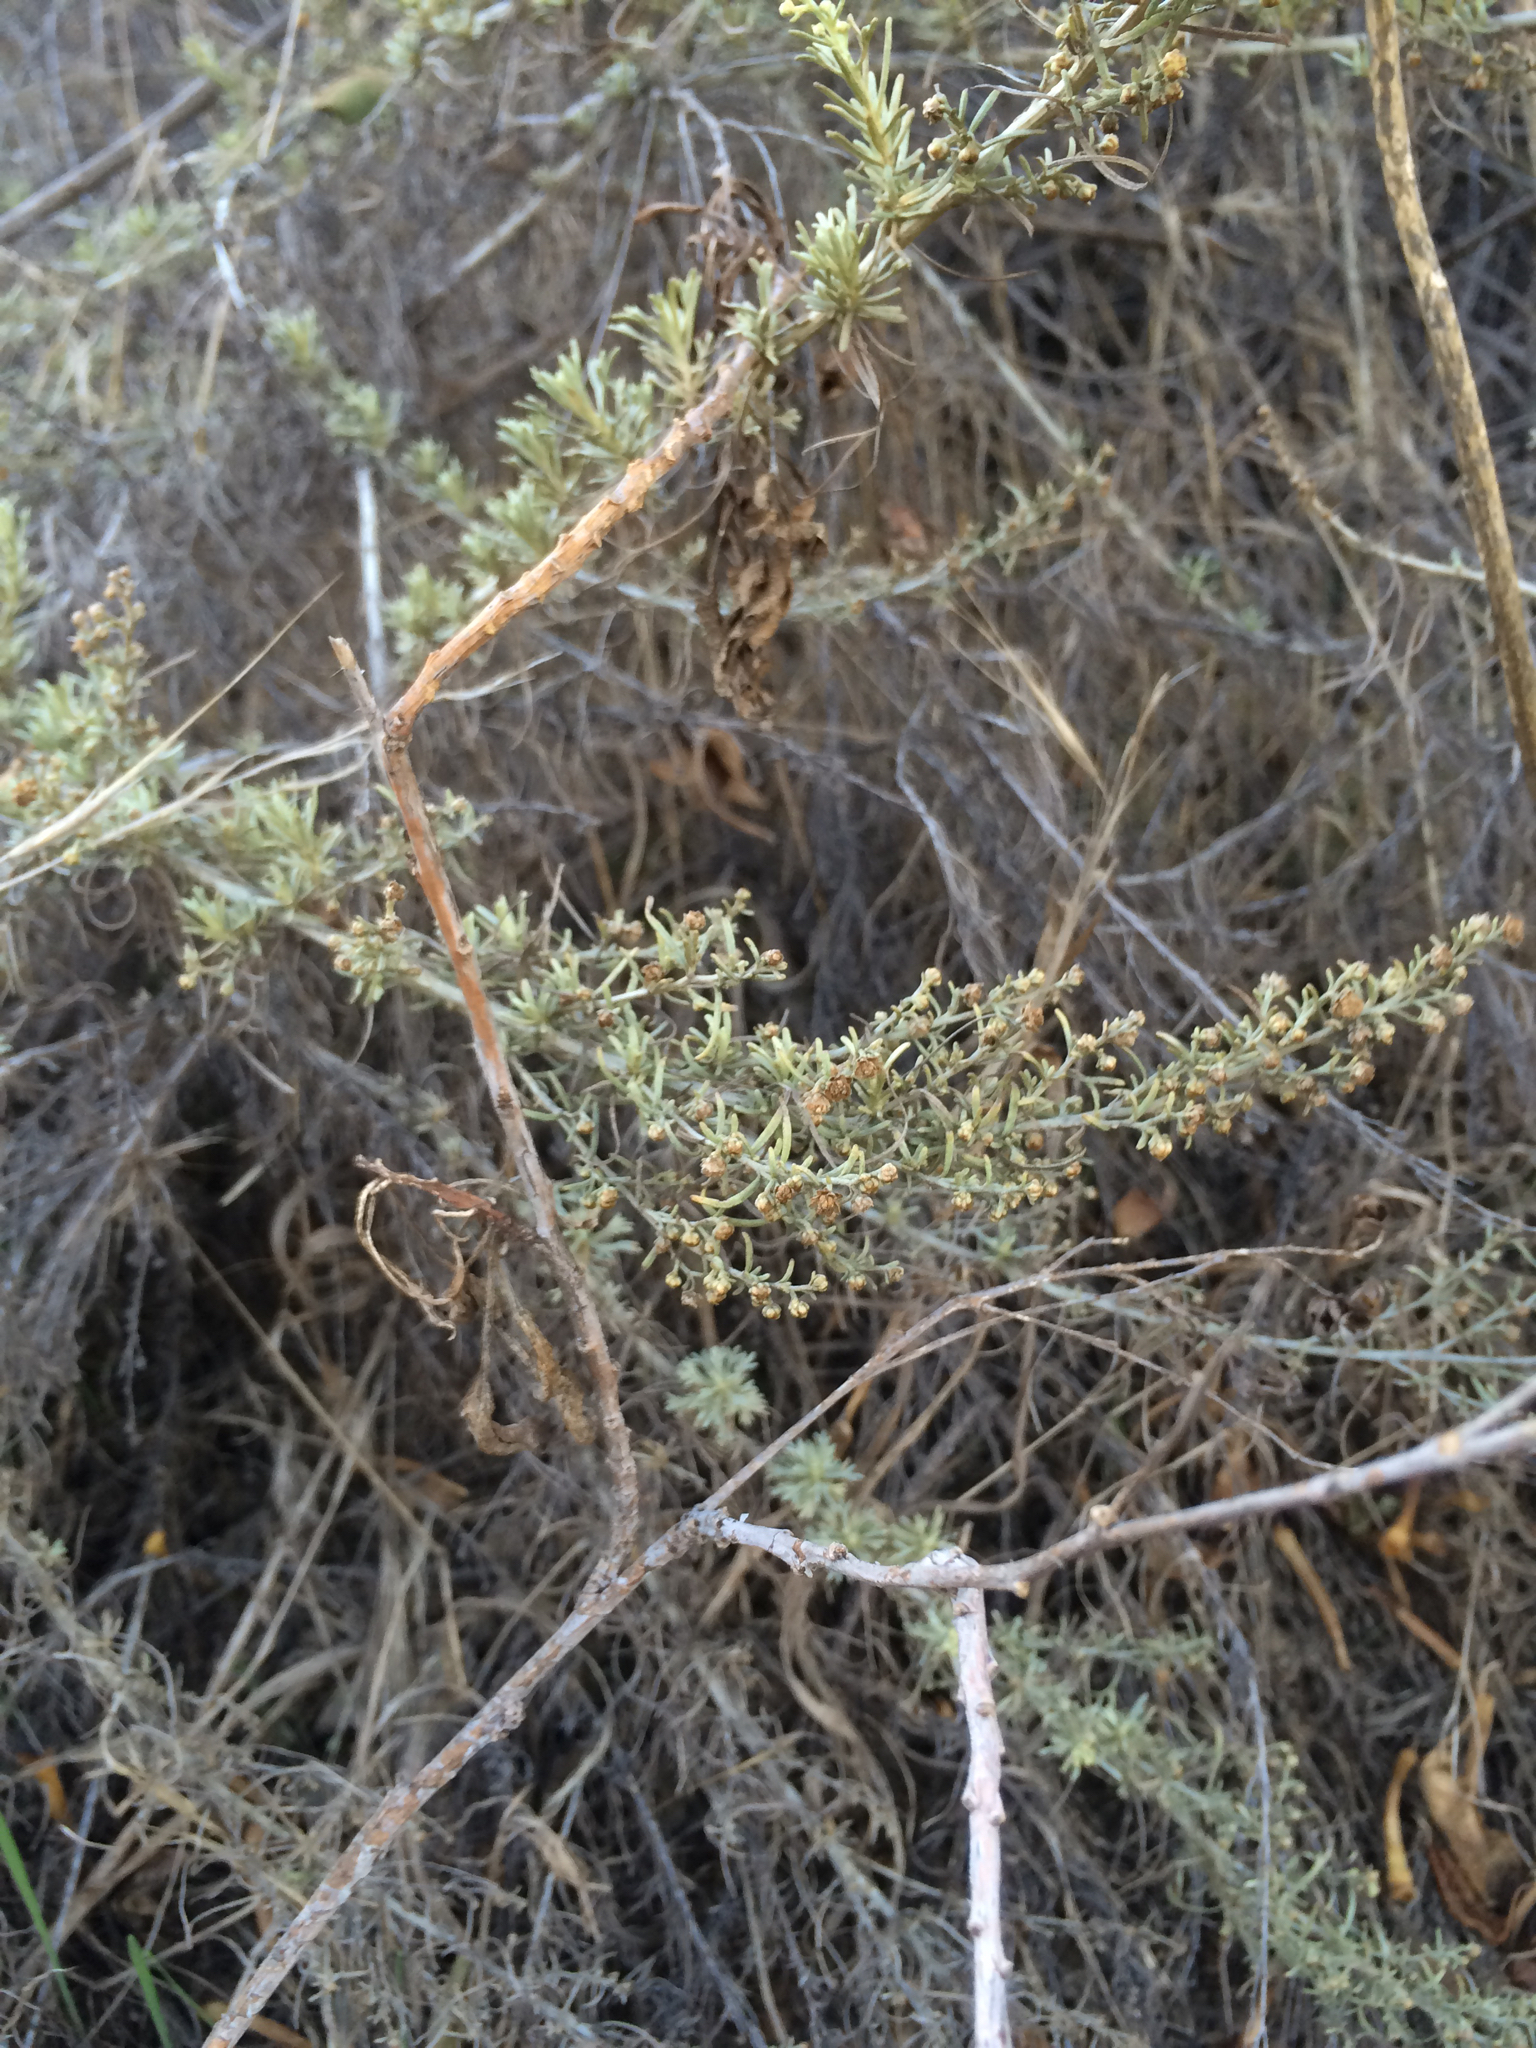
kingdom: Plantae
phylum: Tracheophyta
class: Magnoliopsida
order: Asterales
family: Asteraceae
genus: Artemisia
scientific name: Artemisia californica
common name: California sagebrush
